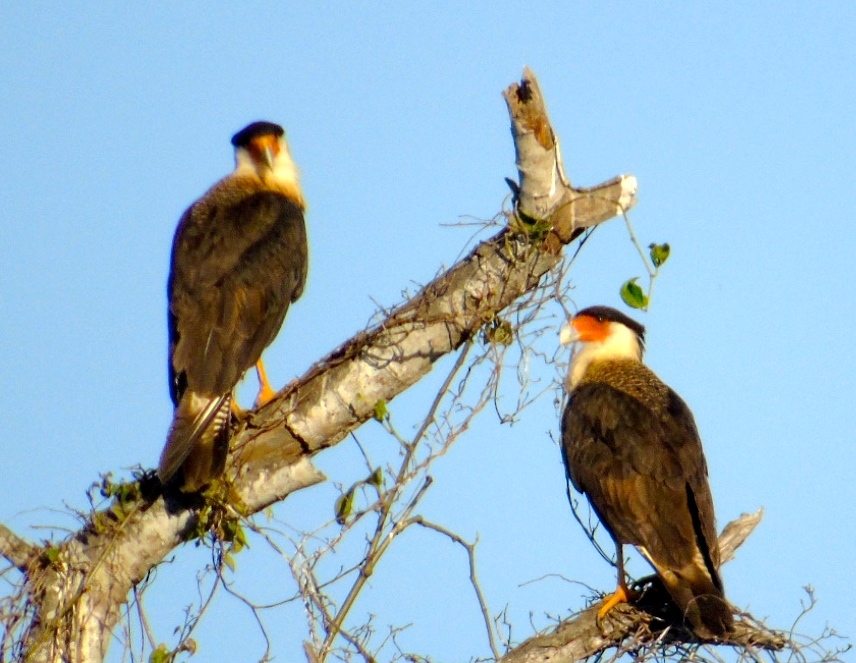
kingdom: Animalia
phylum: Chordata
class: Aves
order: Falconiformes
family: Falconidae
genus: Caracara
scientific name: Caracara plancus
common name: Southern caracara
